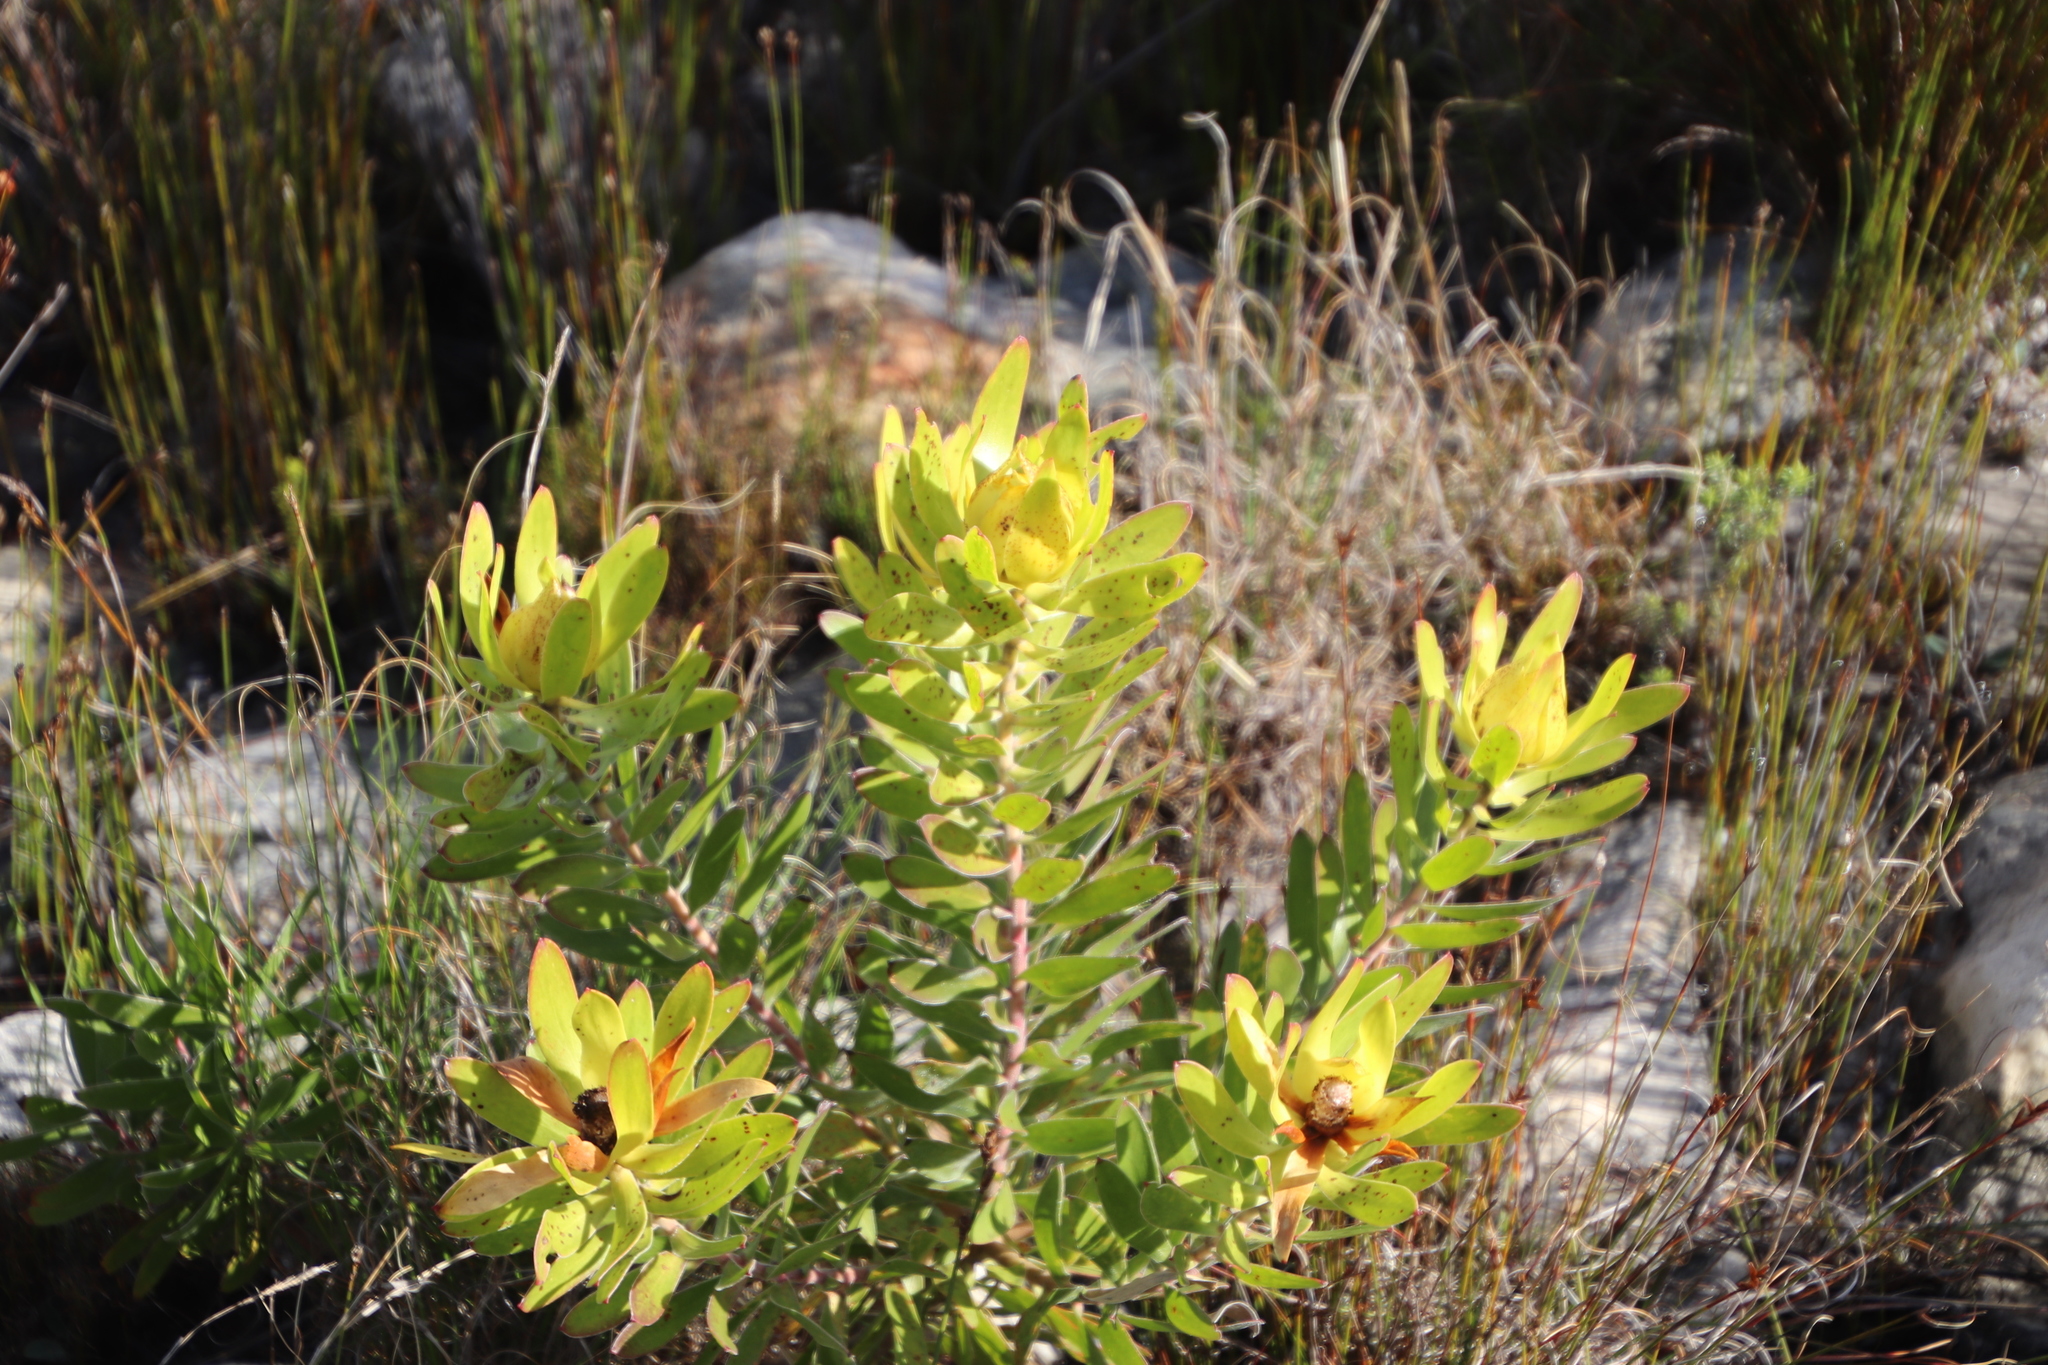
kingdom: Plantae
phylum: Tracheophyta
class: Magnoliopsida
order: Proteales
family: Proteaceae
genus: Leucadendron
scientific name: Leucadendron laureolum
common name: Golden sunshinebush
